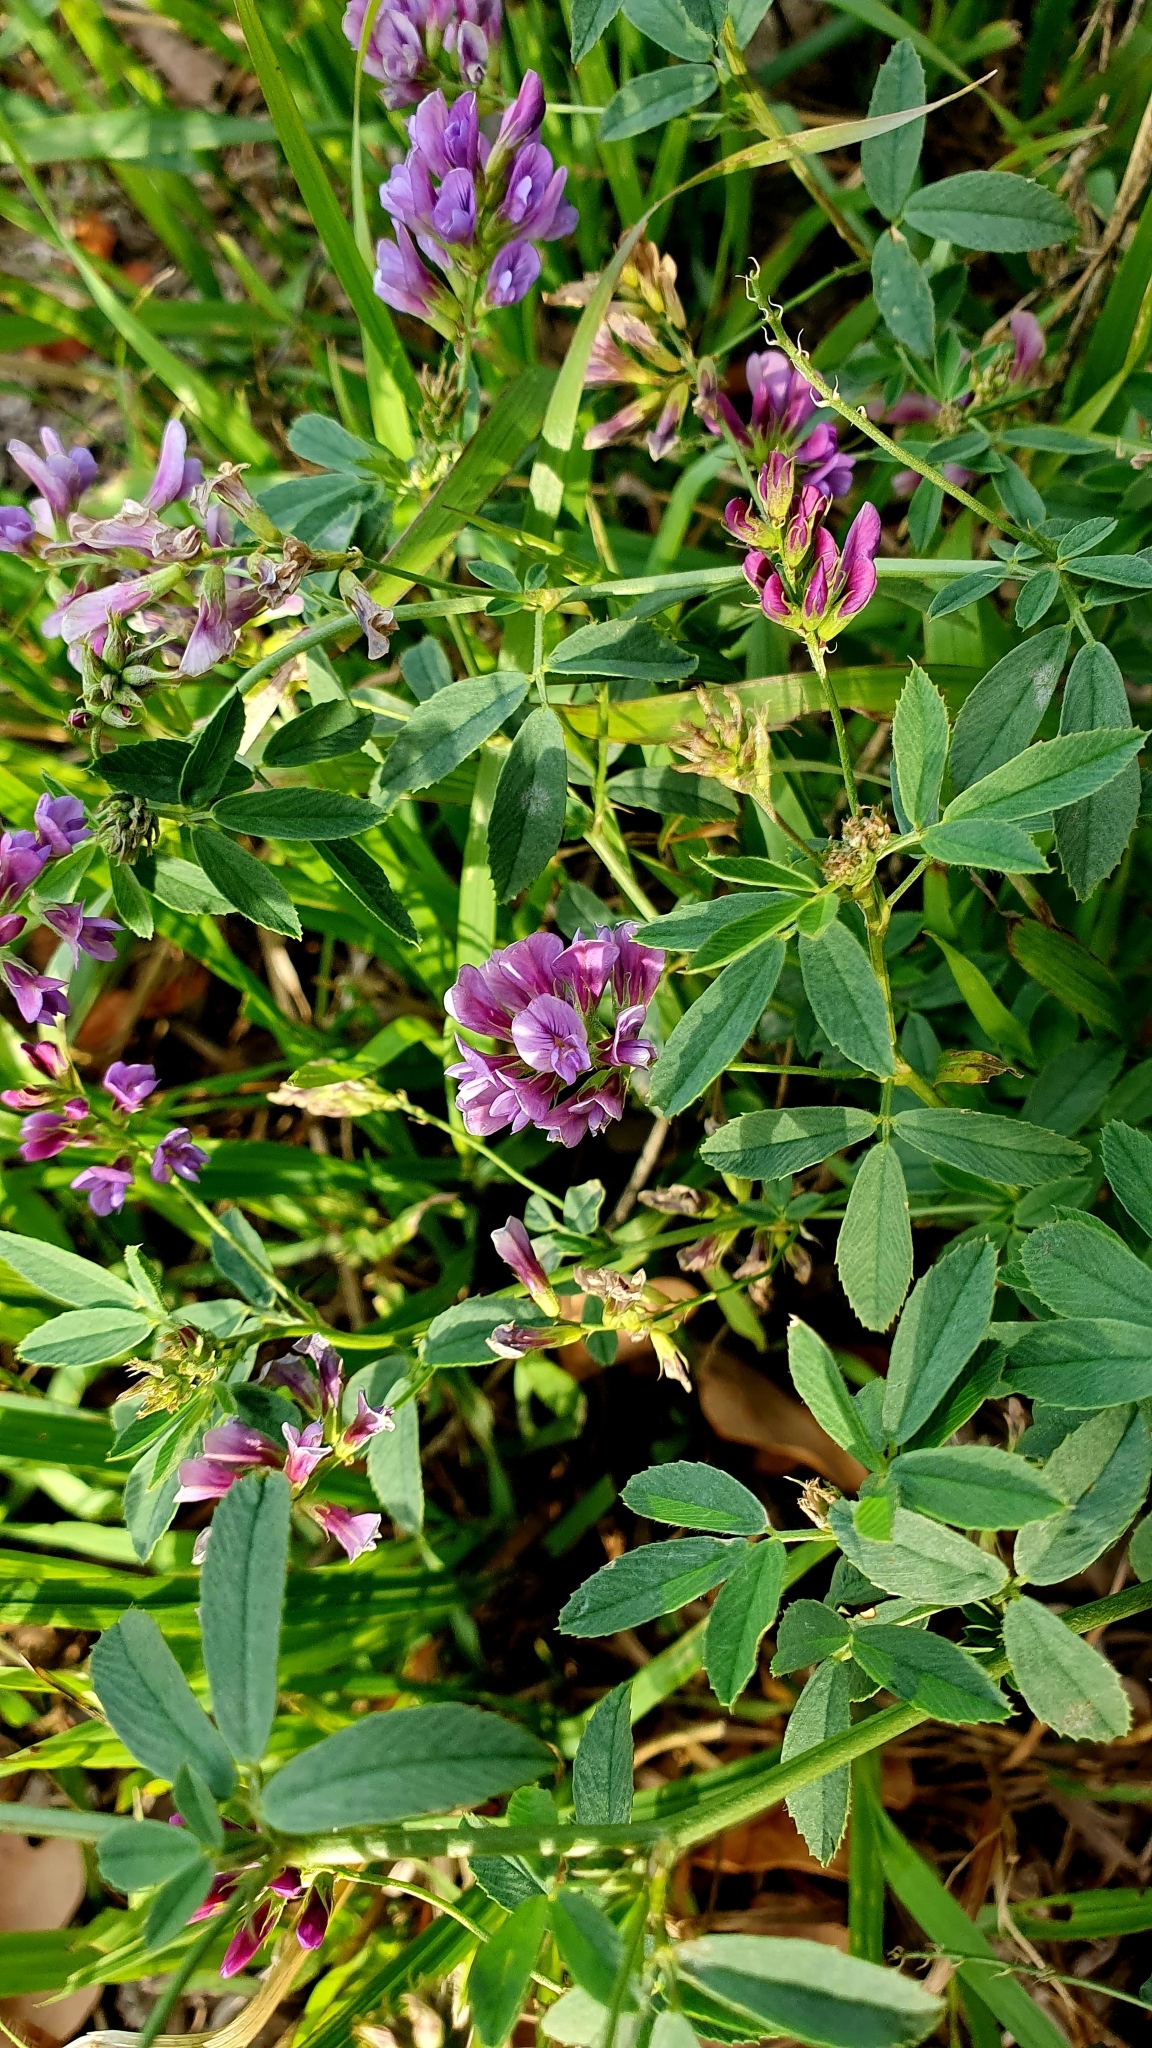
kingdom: Plantae
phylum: Tracheophyta
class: Magnoliopsida
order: Fabales
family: Fabaceae
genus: Medicago
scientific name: Medicago varia
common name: Sand lucerne
